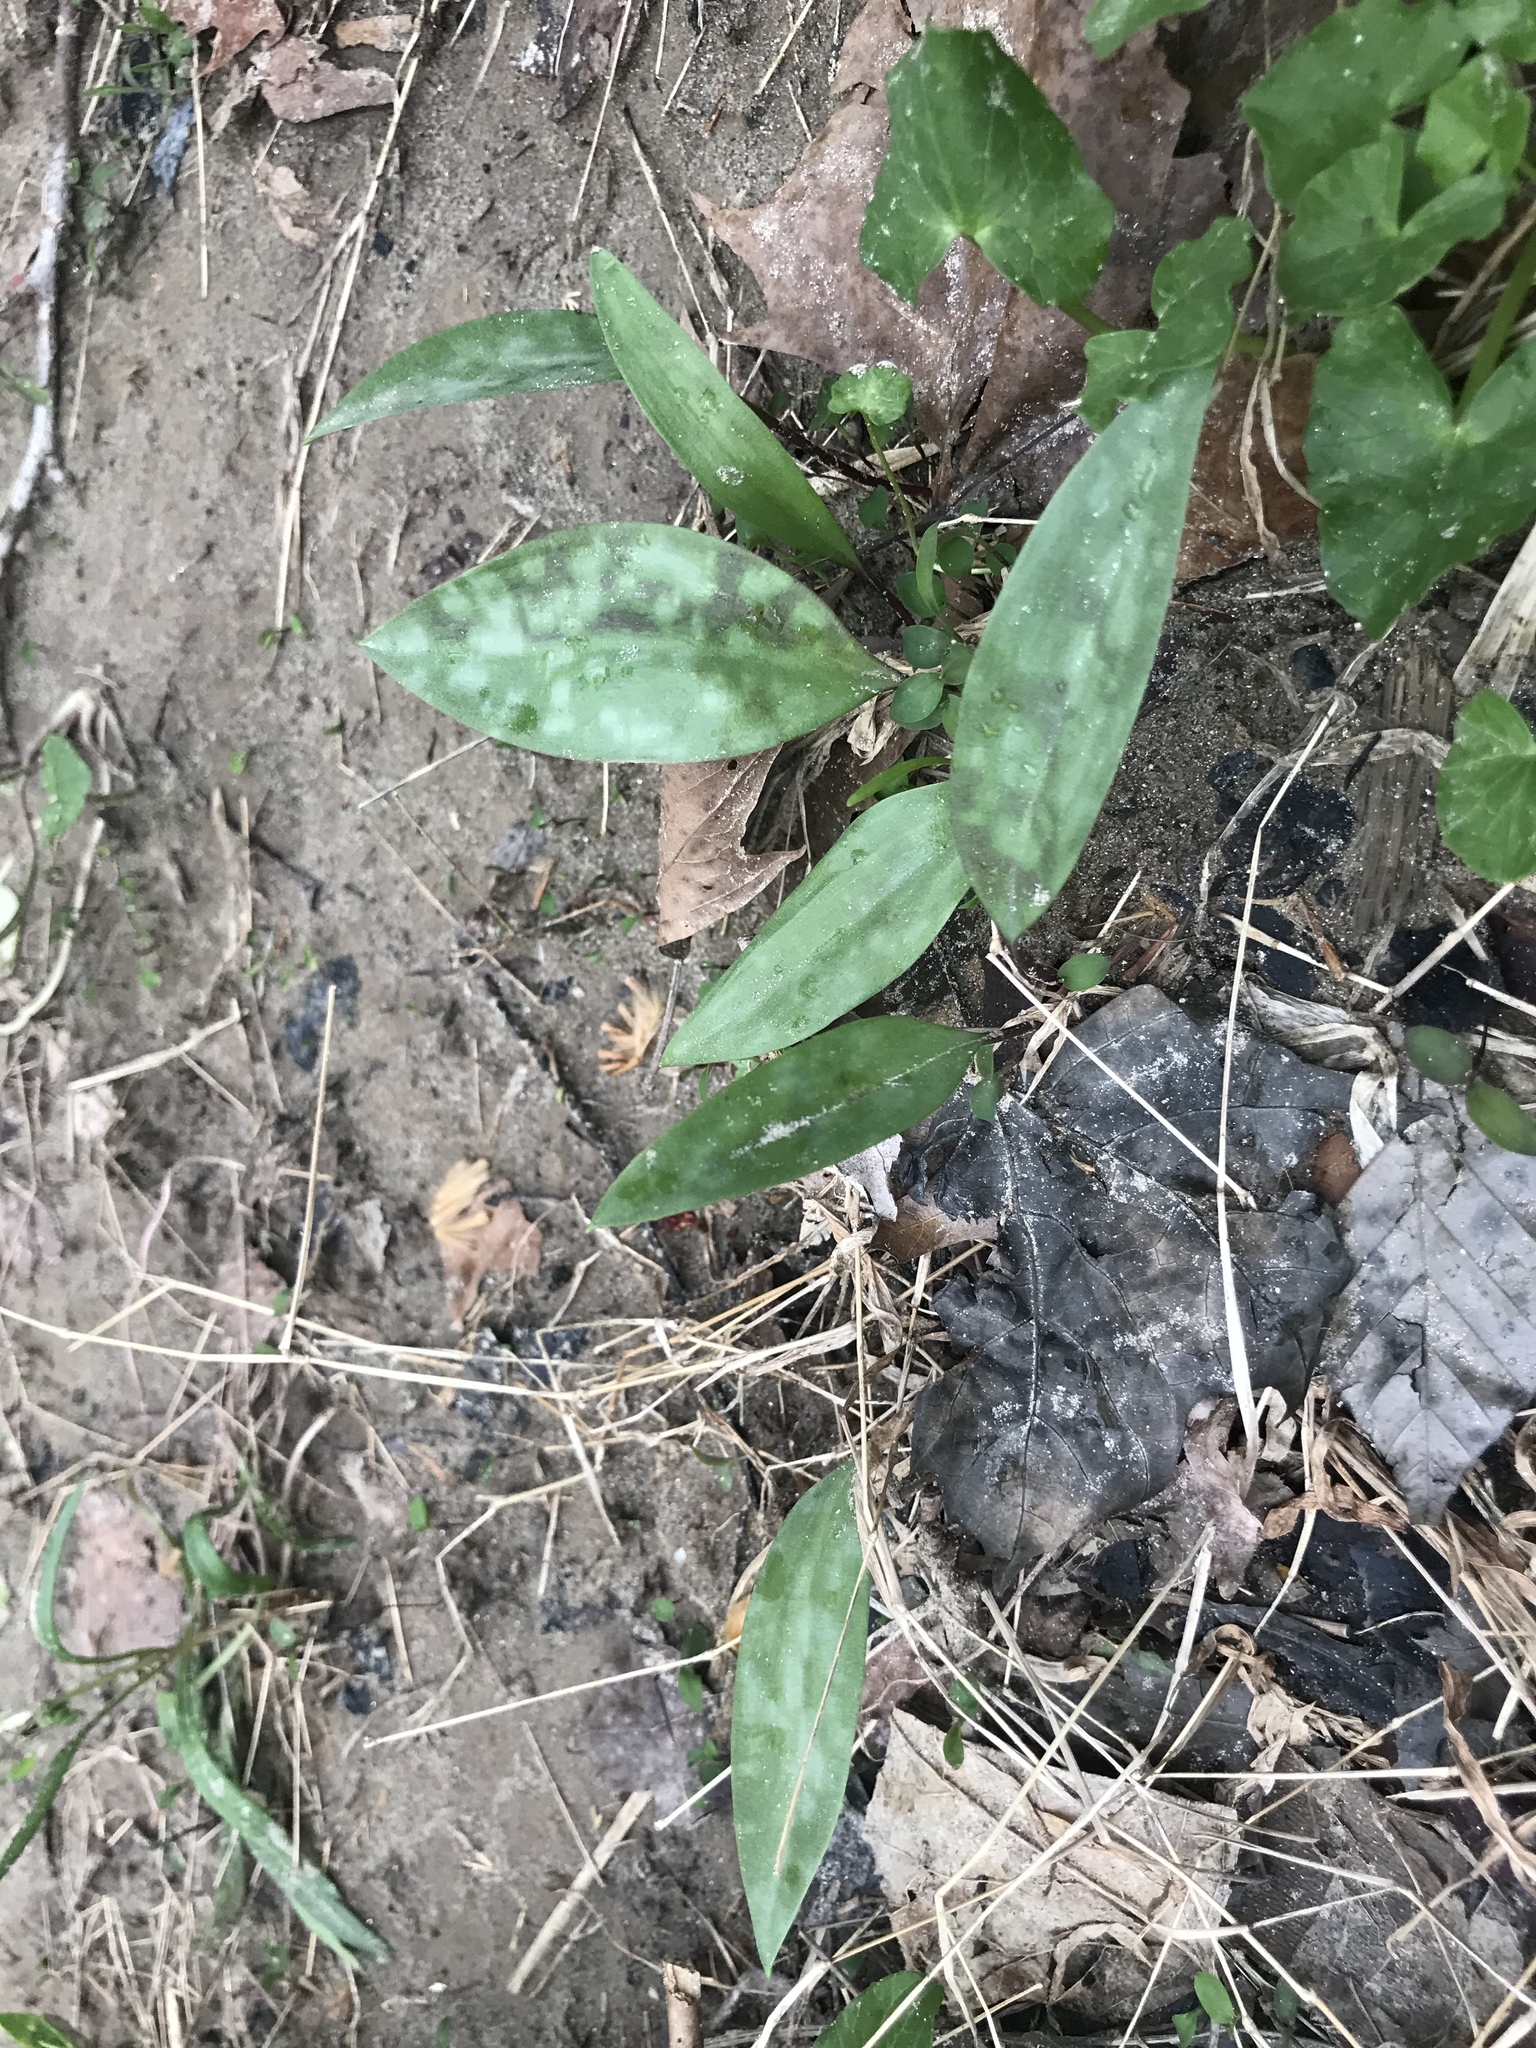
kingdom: Plantae
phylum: Tracheophyta
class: Liliopsida
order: Liliales
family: Liliaceae
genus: Erythronium
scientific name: Erythronium americanum
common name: Yellow adder's-tongue
